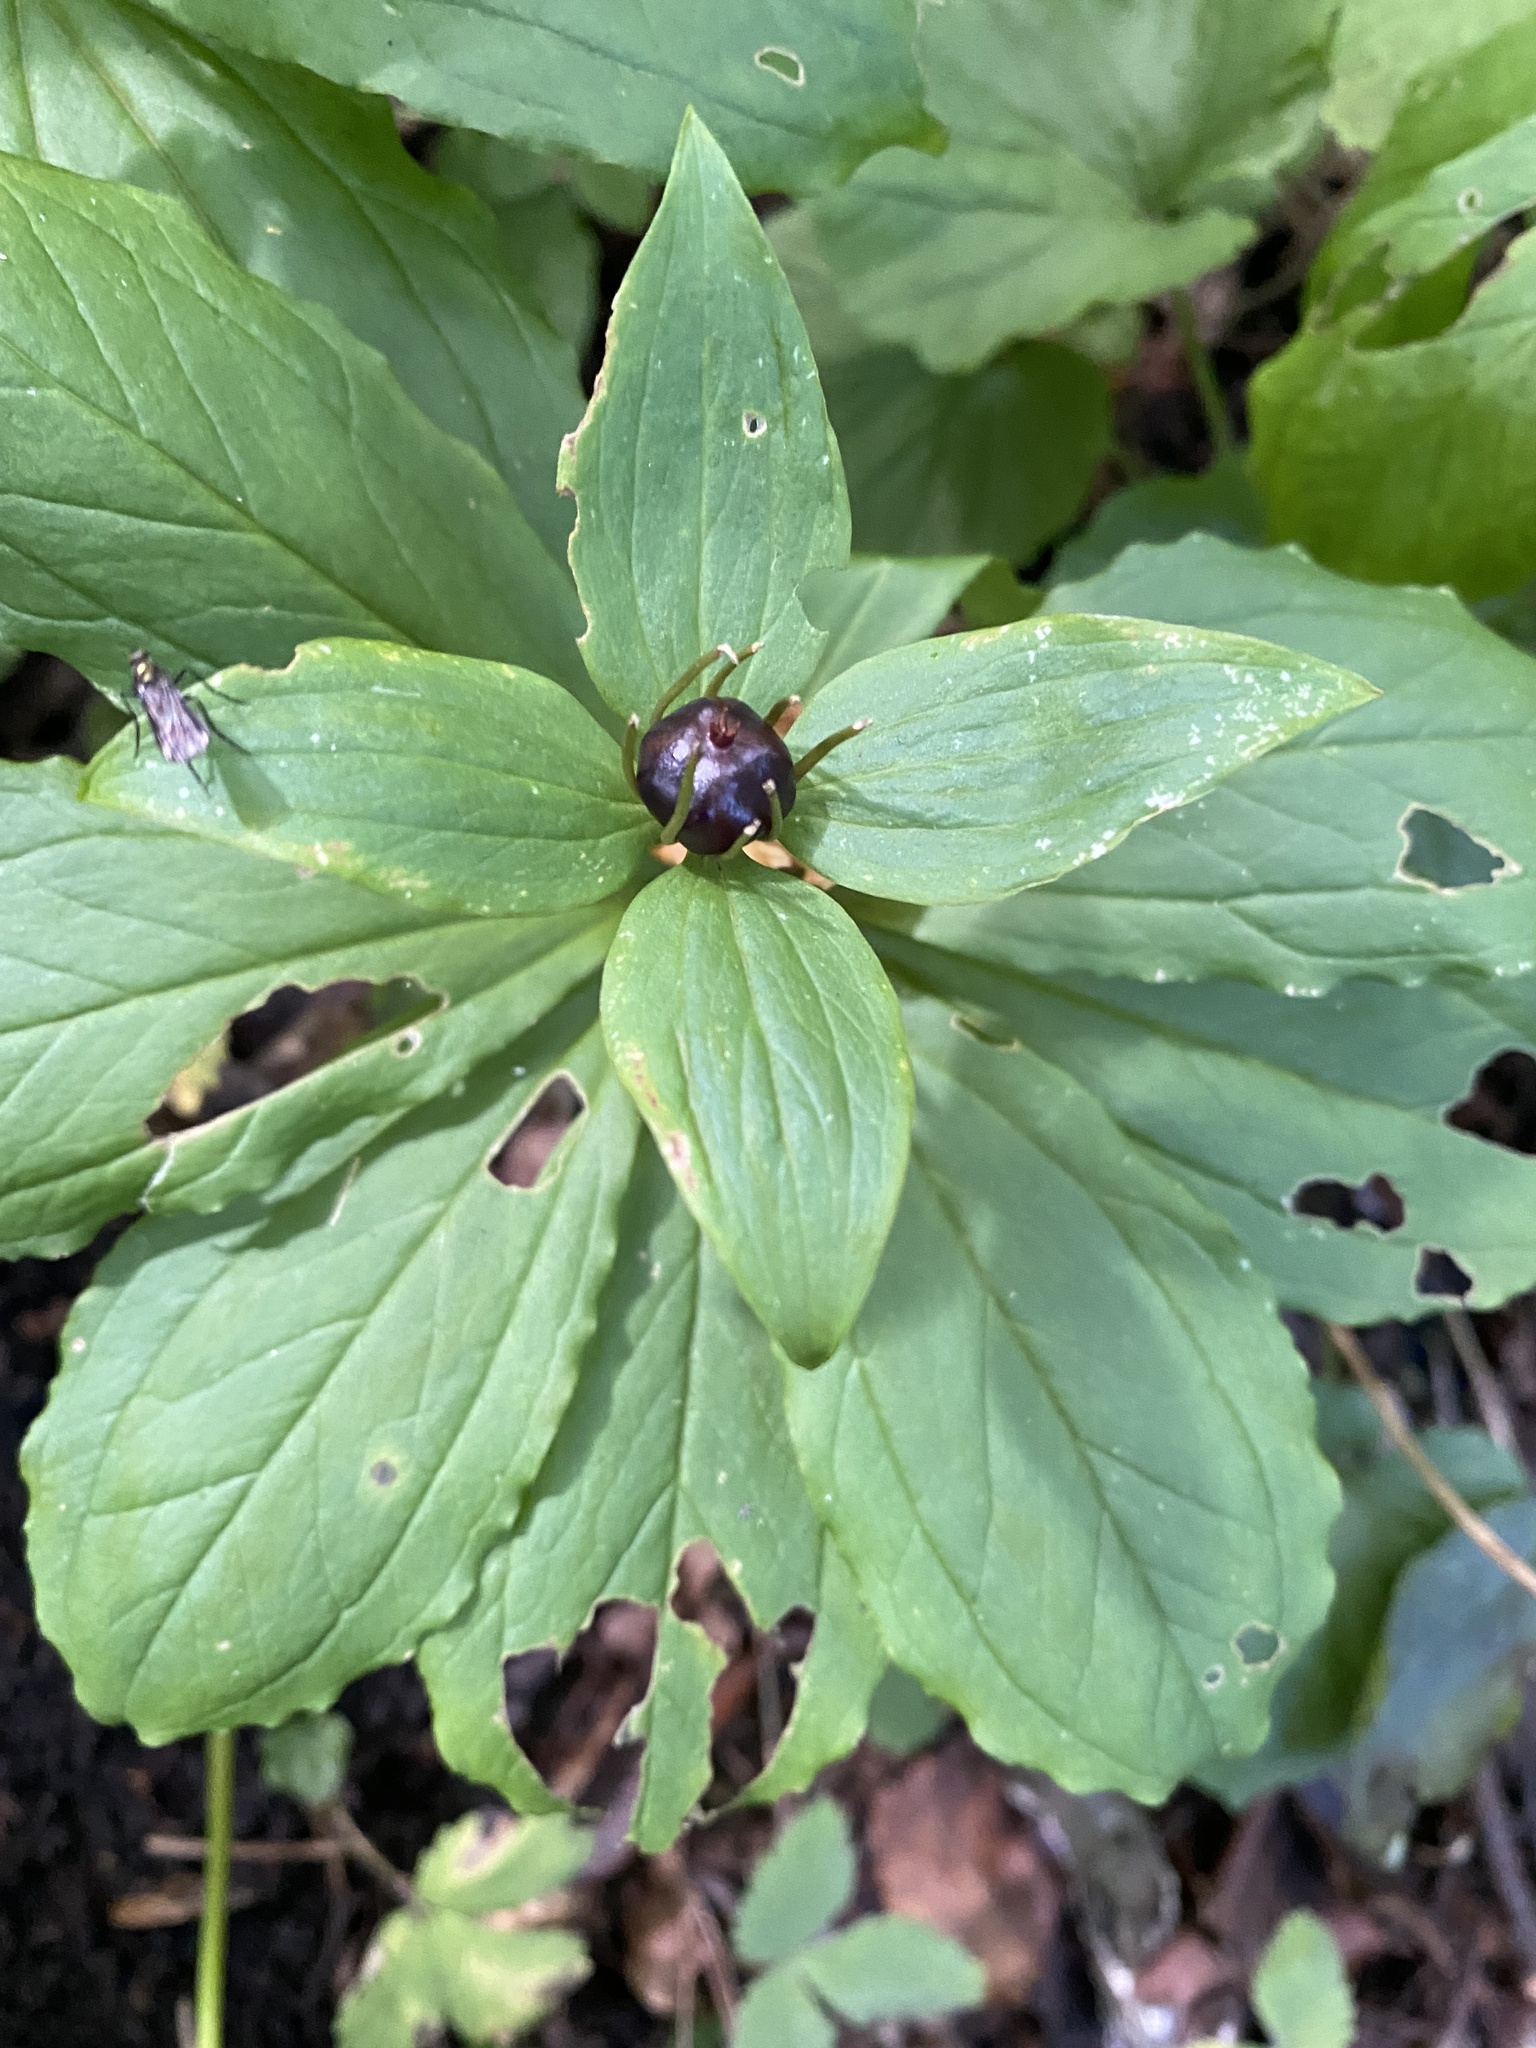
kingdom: Plantae
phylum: Tracheophyta
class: Liliopsida
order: Liliales
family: Melanthiaceae
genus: Paris
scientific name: Paris incompleta
